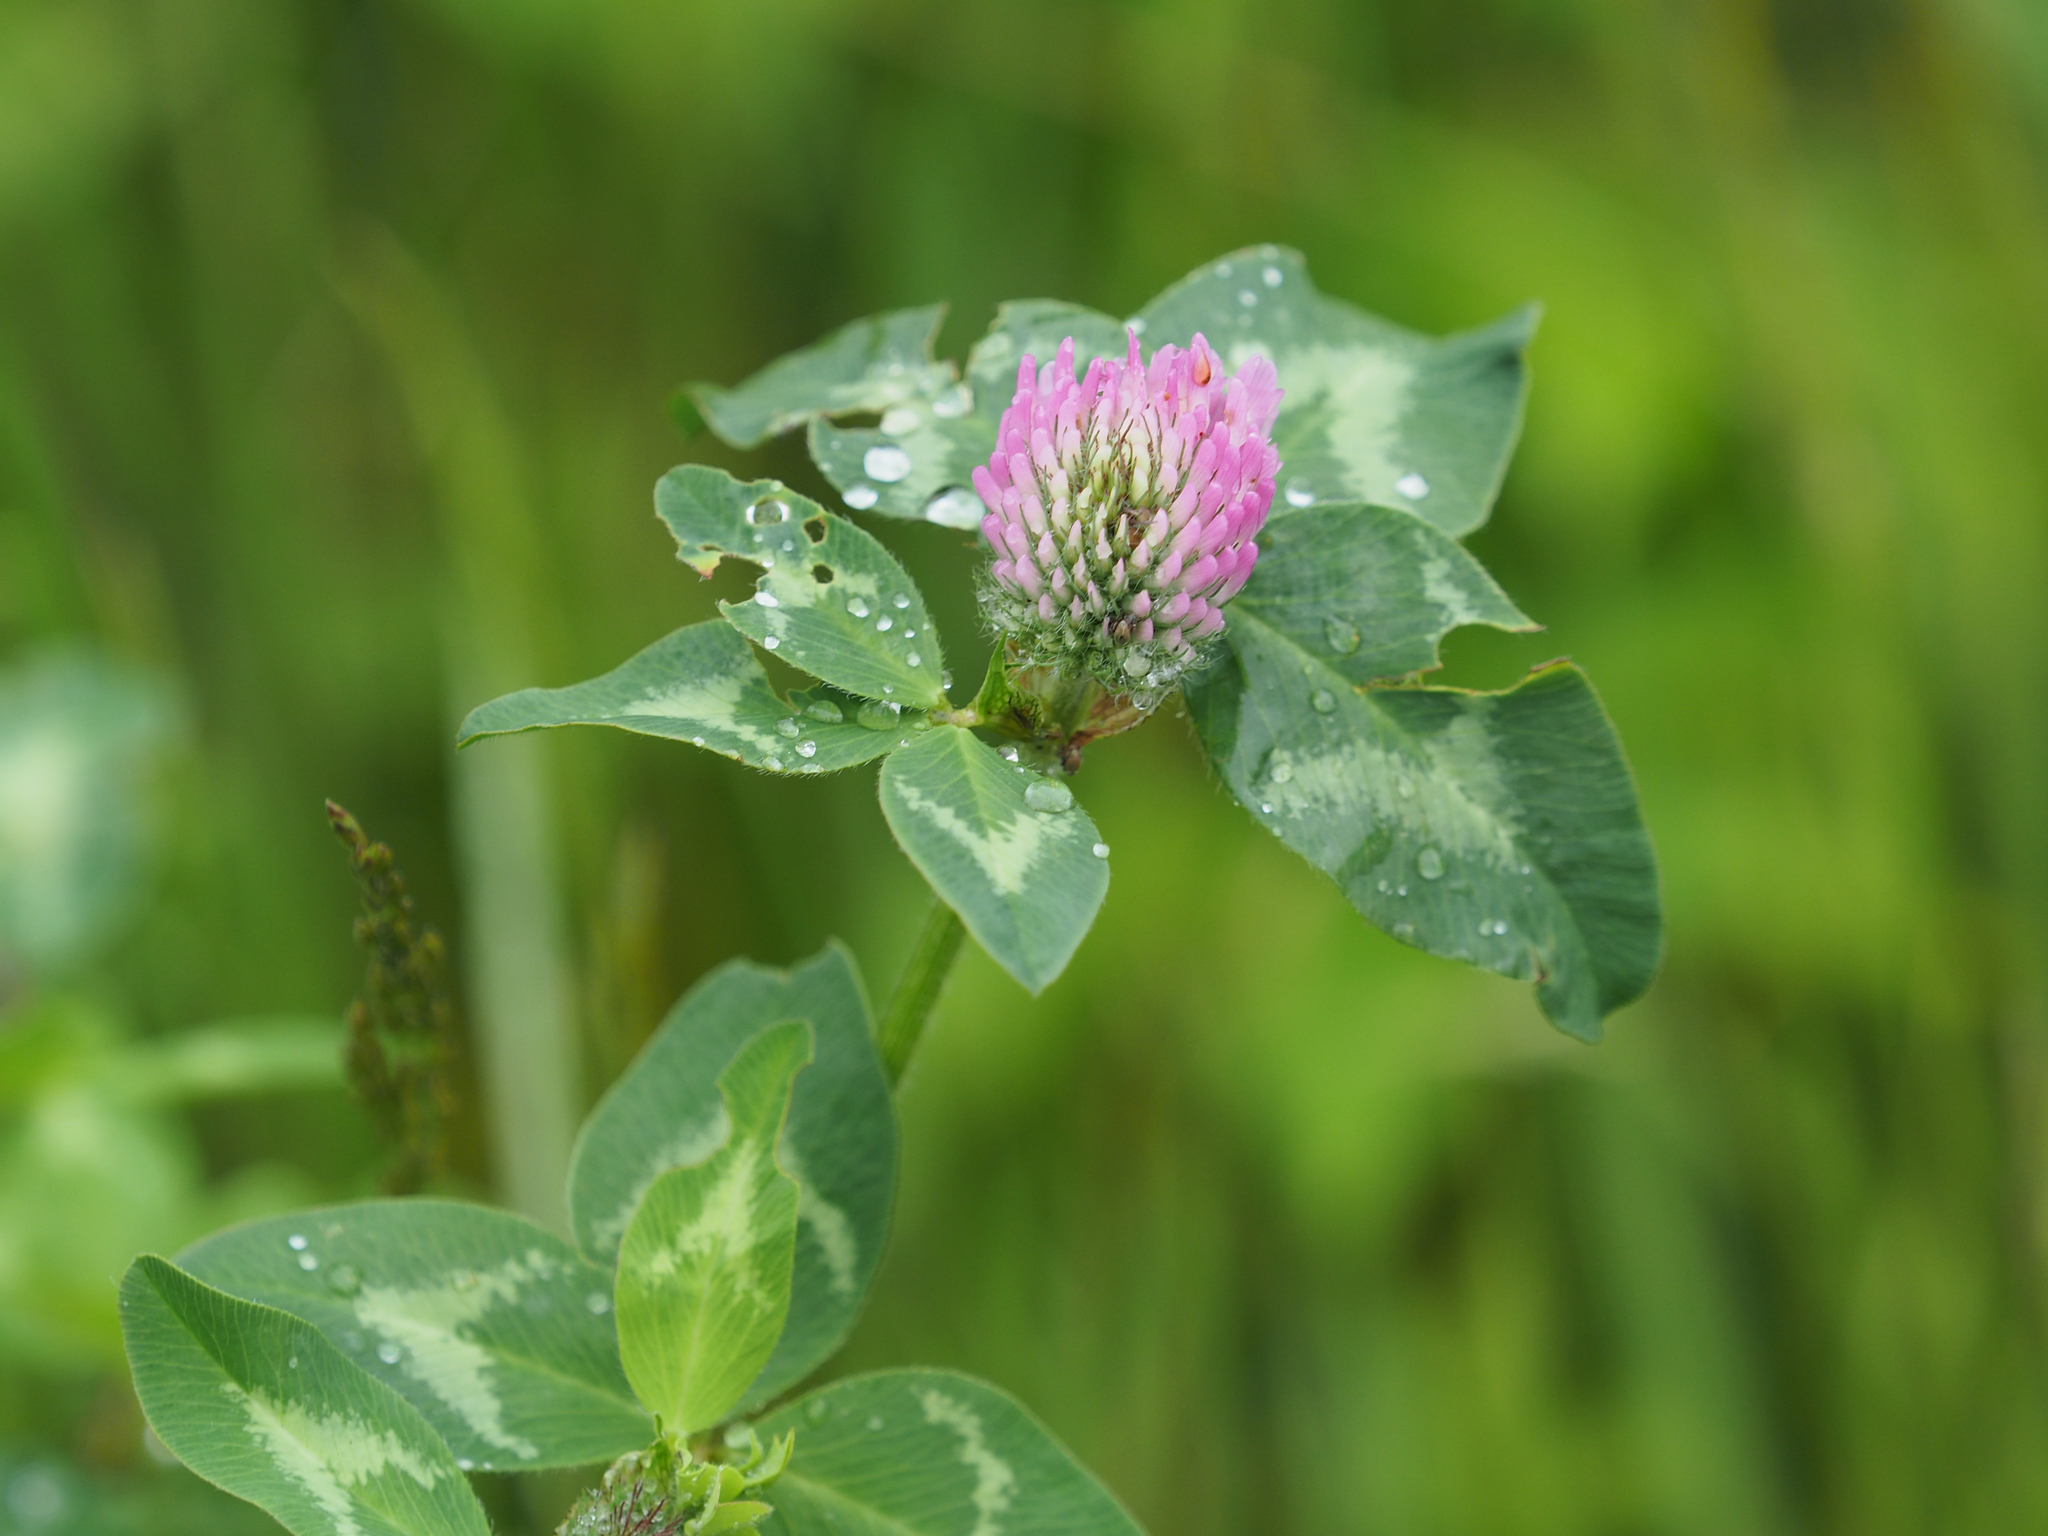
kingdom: Plantae
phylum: Tracheophyta
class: Magnoliopsida
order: Fabales
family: Fabaceae
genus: Trifolium
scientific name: Trifolium pratense
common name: Red clover
